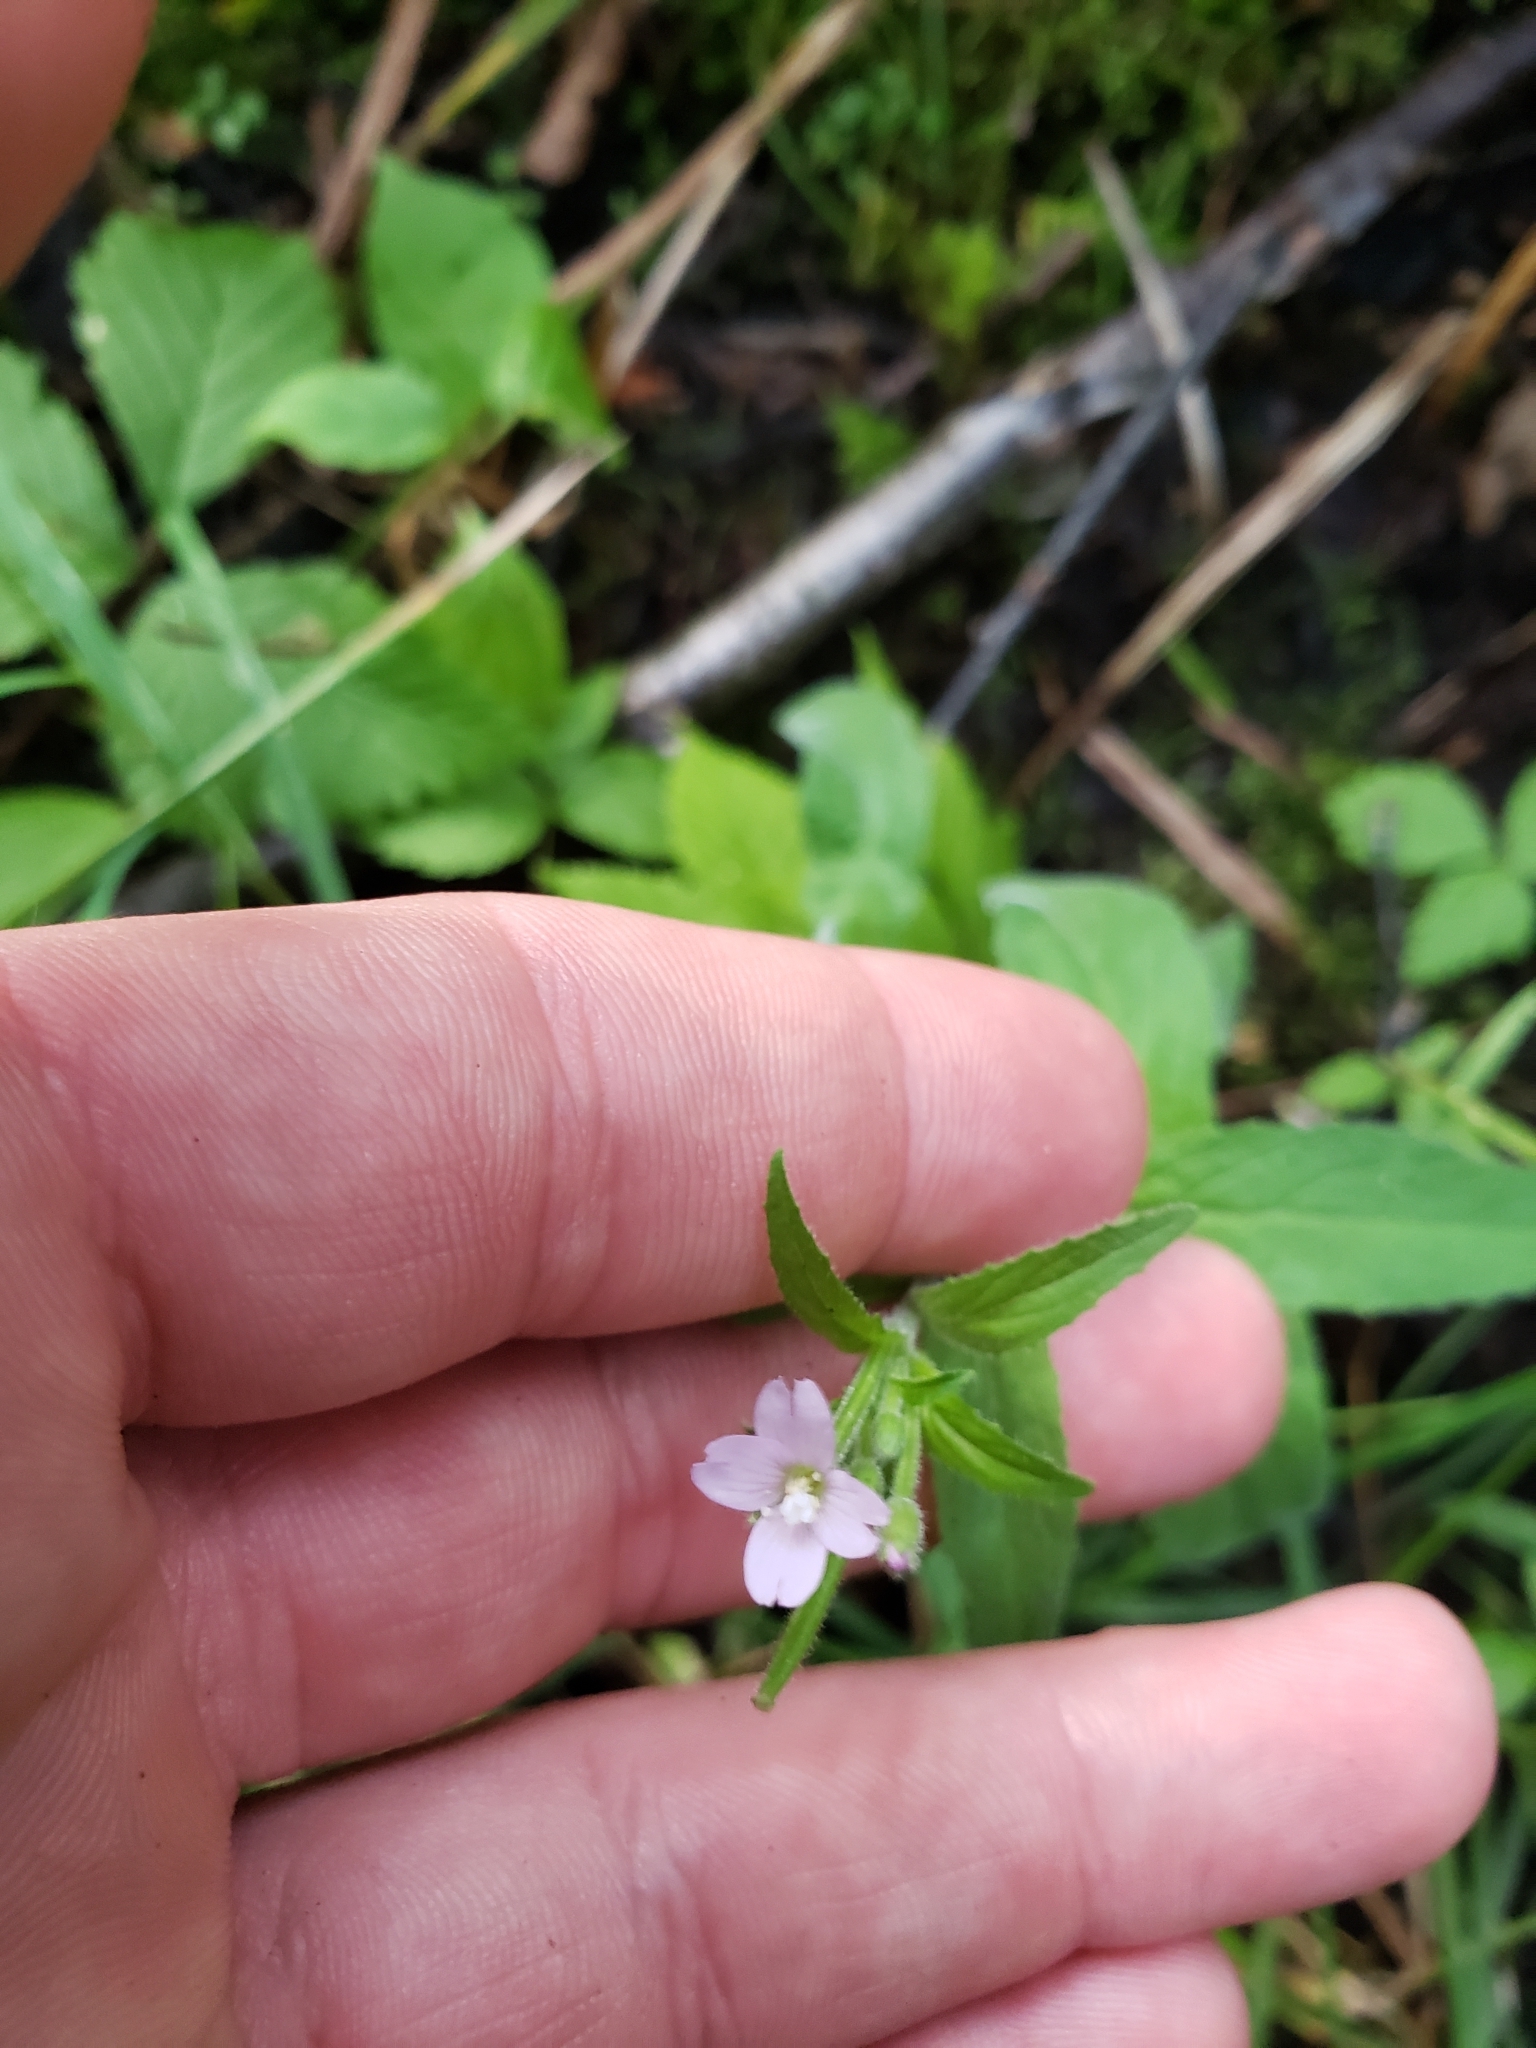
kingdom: Plantae
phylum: Tracheophyta
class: Magnoliopsida
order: Myrtales
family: Onagraceae
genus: Epilobium
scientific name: Epilobium parviflorum
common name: Hoary willowherb
